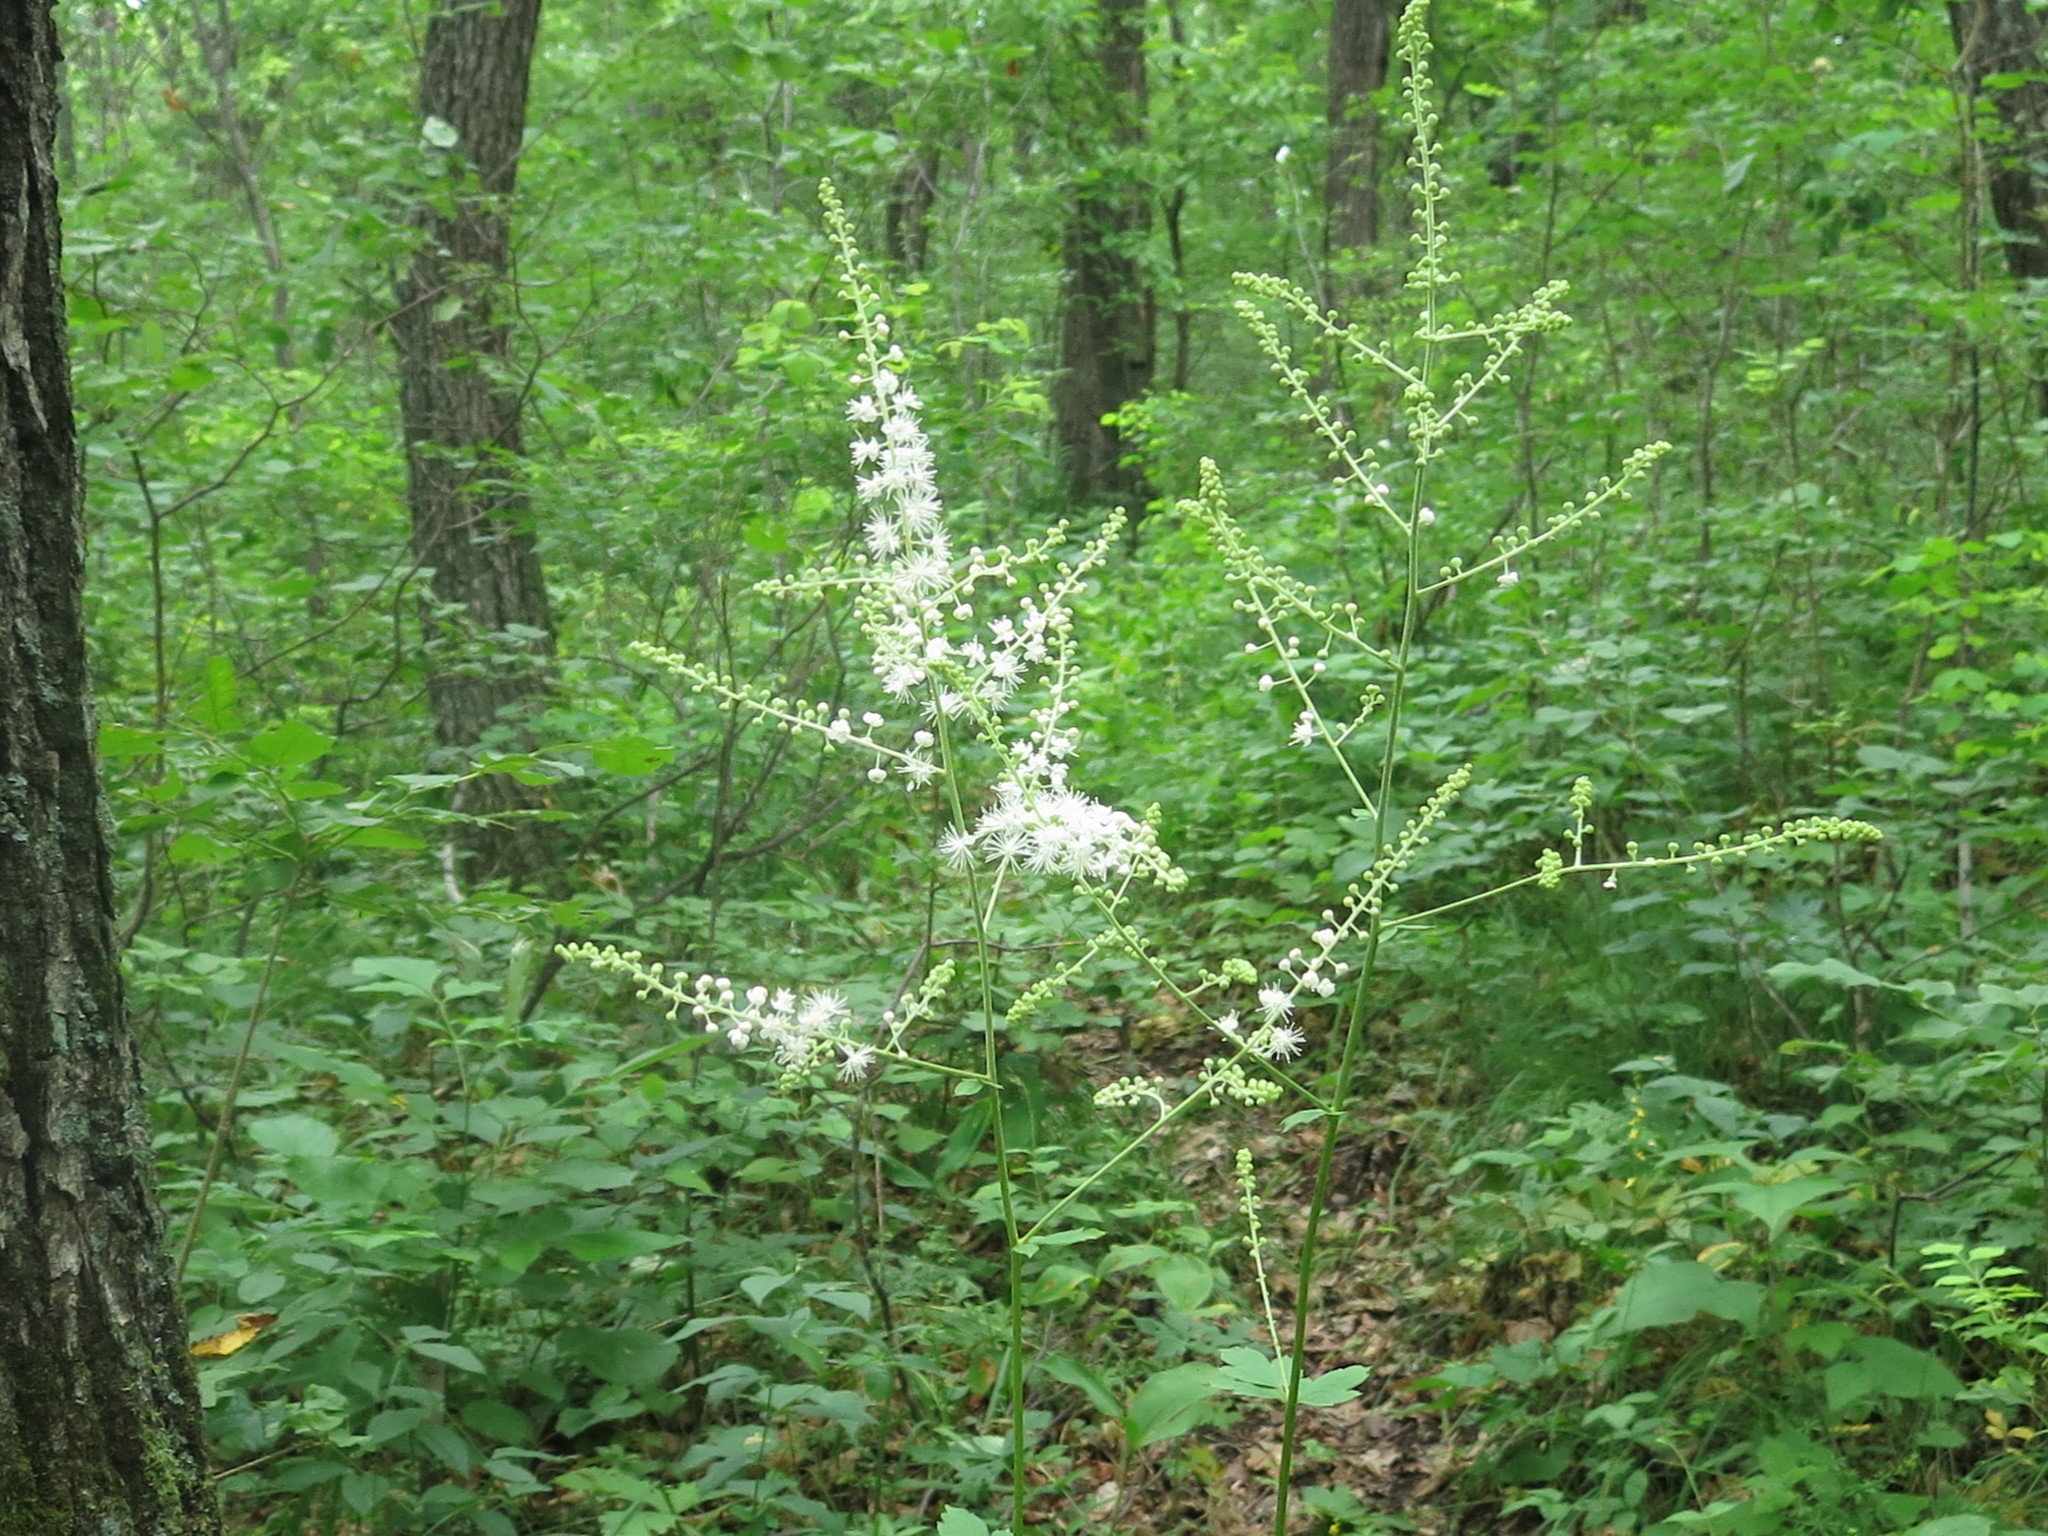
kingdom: Plantae
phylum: Tracheophyta
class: Magnoliopsida
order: Ranunculales
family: Ranunculaceae
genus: Actaea
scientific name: Actaea dahurica
